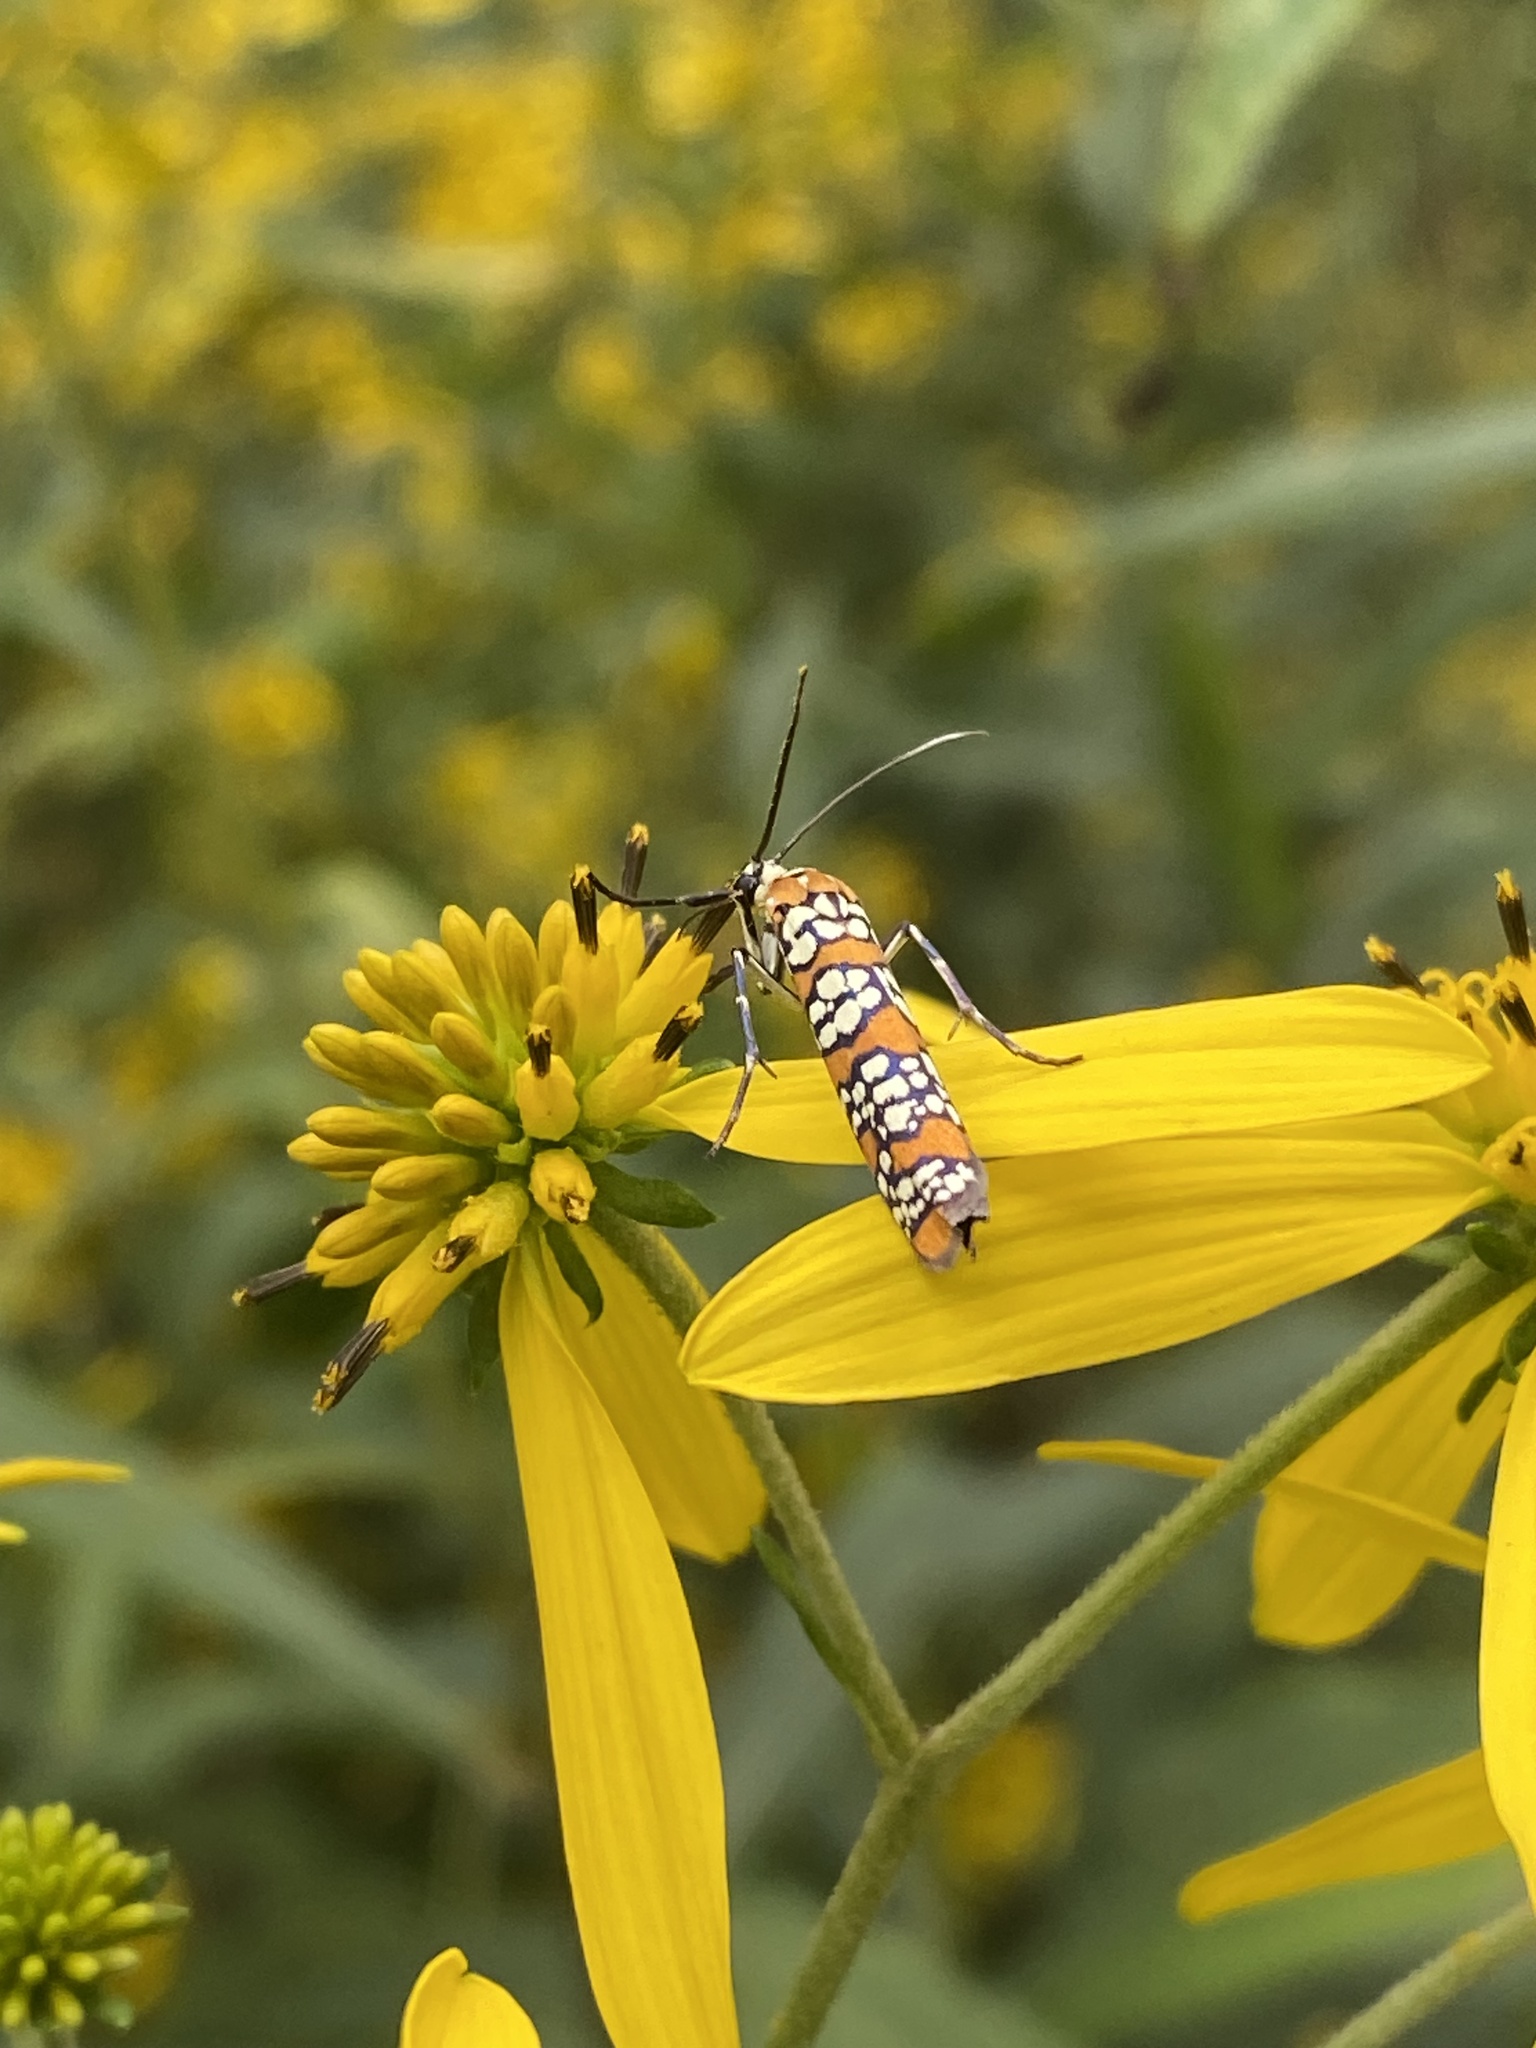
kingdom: Animalia
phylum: Arthropoda
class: Insecta
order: Lepidoptera
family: Attevidae
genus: Atteva
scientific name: Atteva punctella
